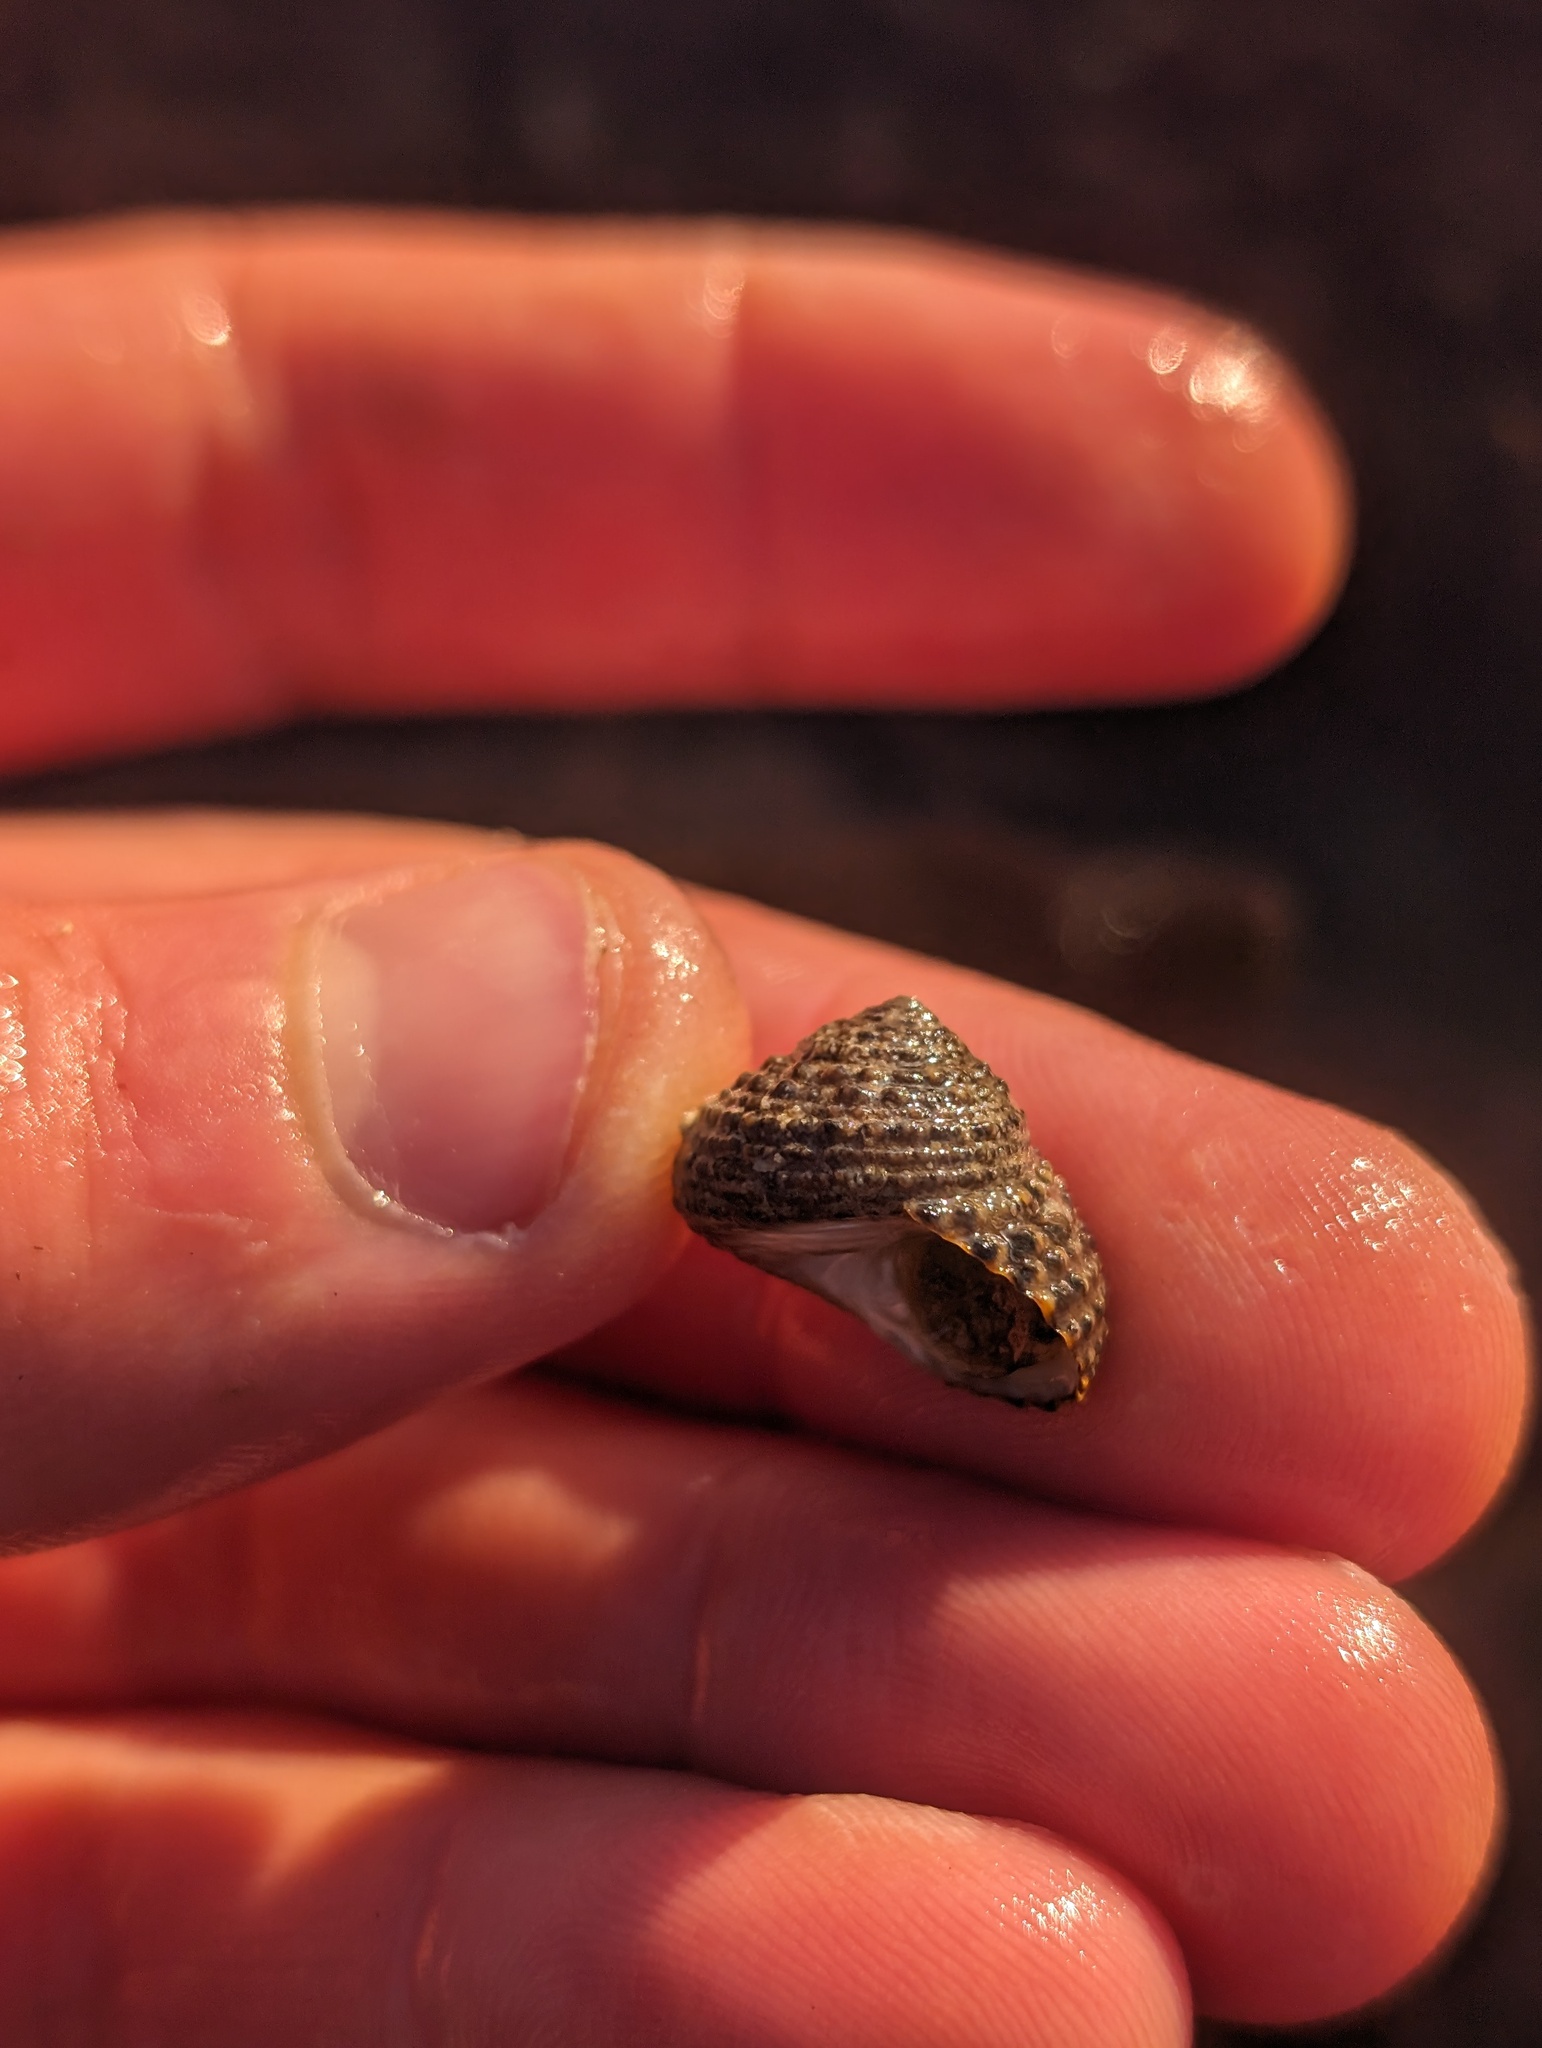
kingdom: Animalia
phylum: Mollusca
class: Gastropoda
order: Trochida
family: Tegulidae
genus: Tegula
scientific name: Tegula eiseni
